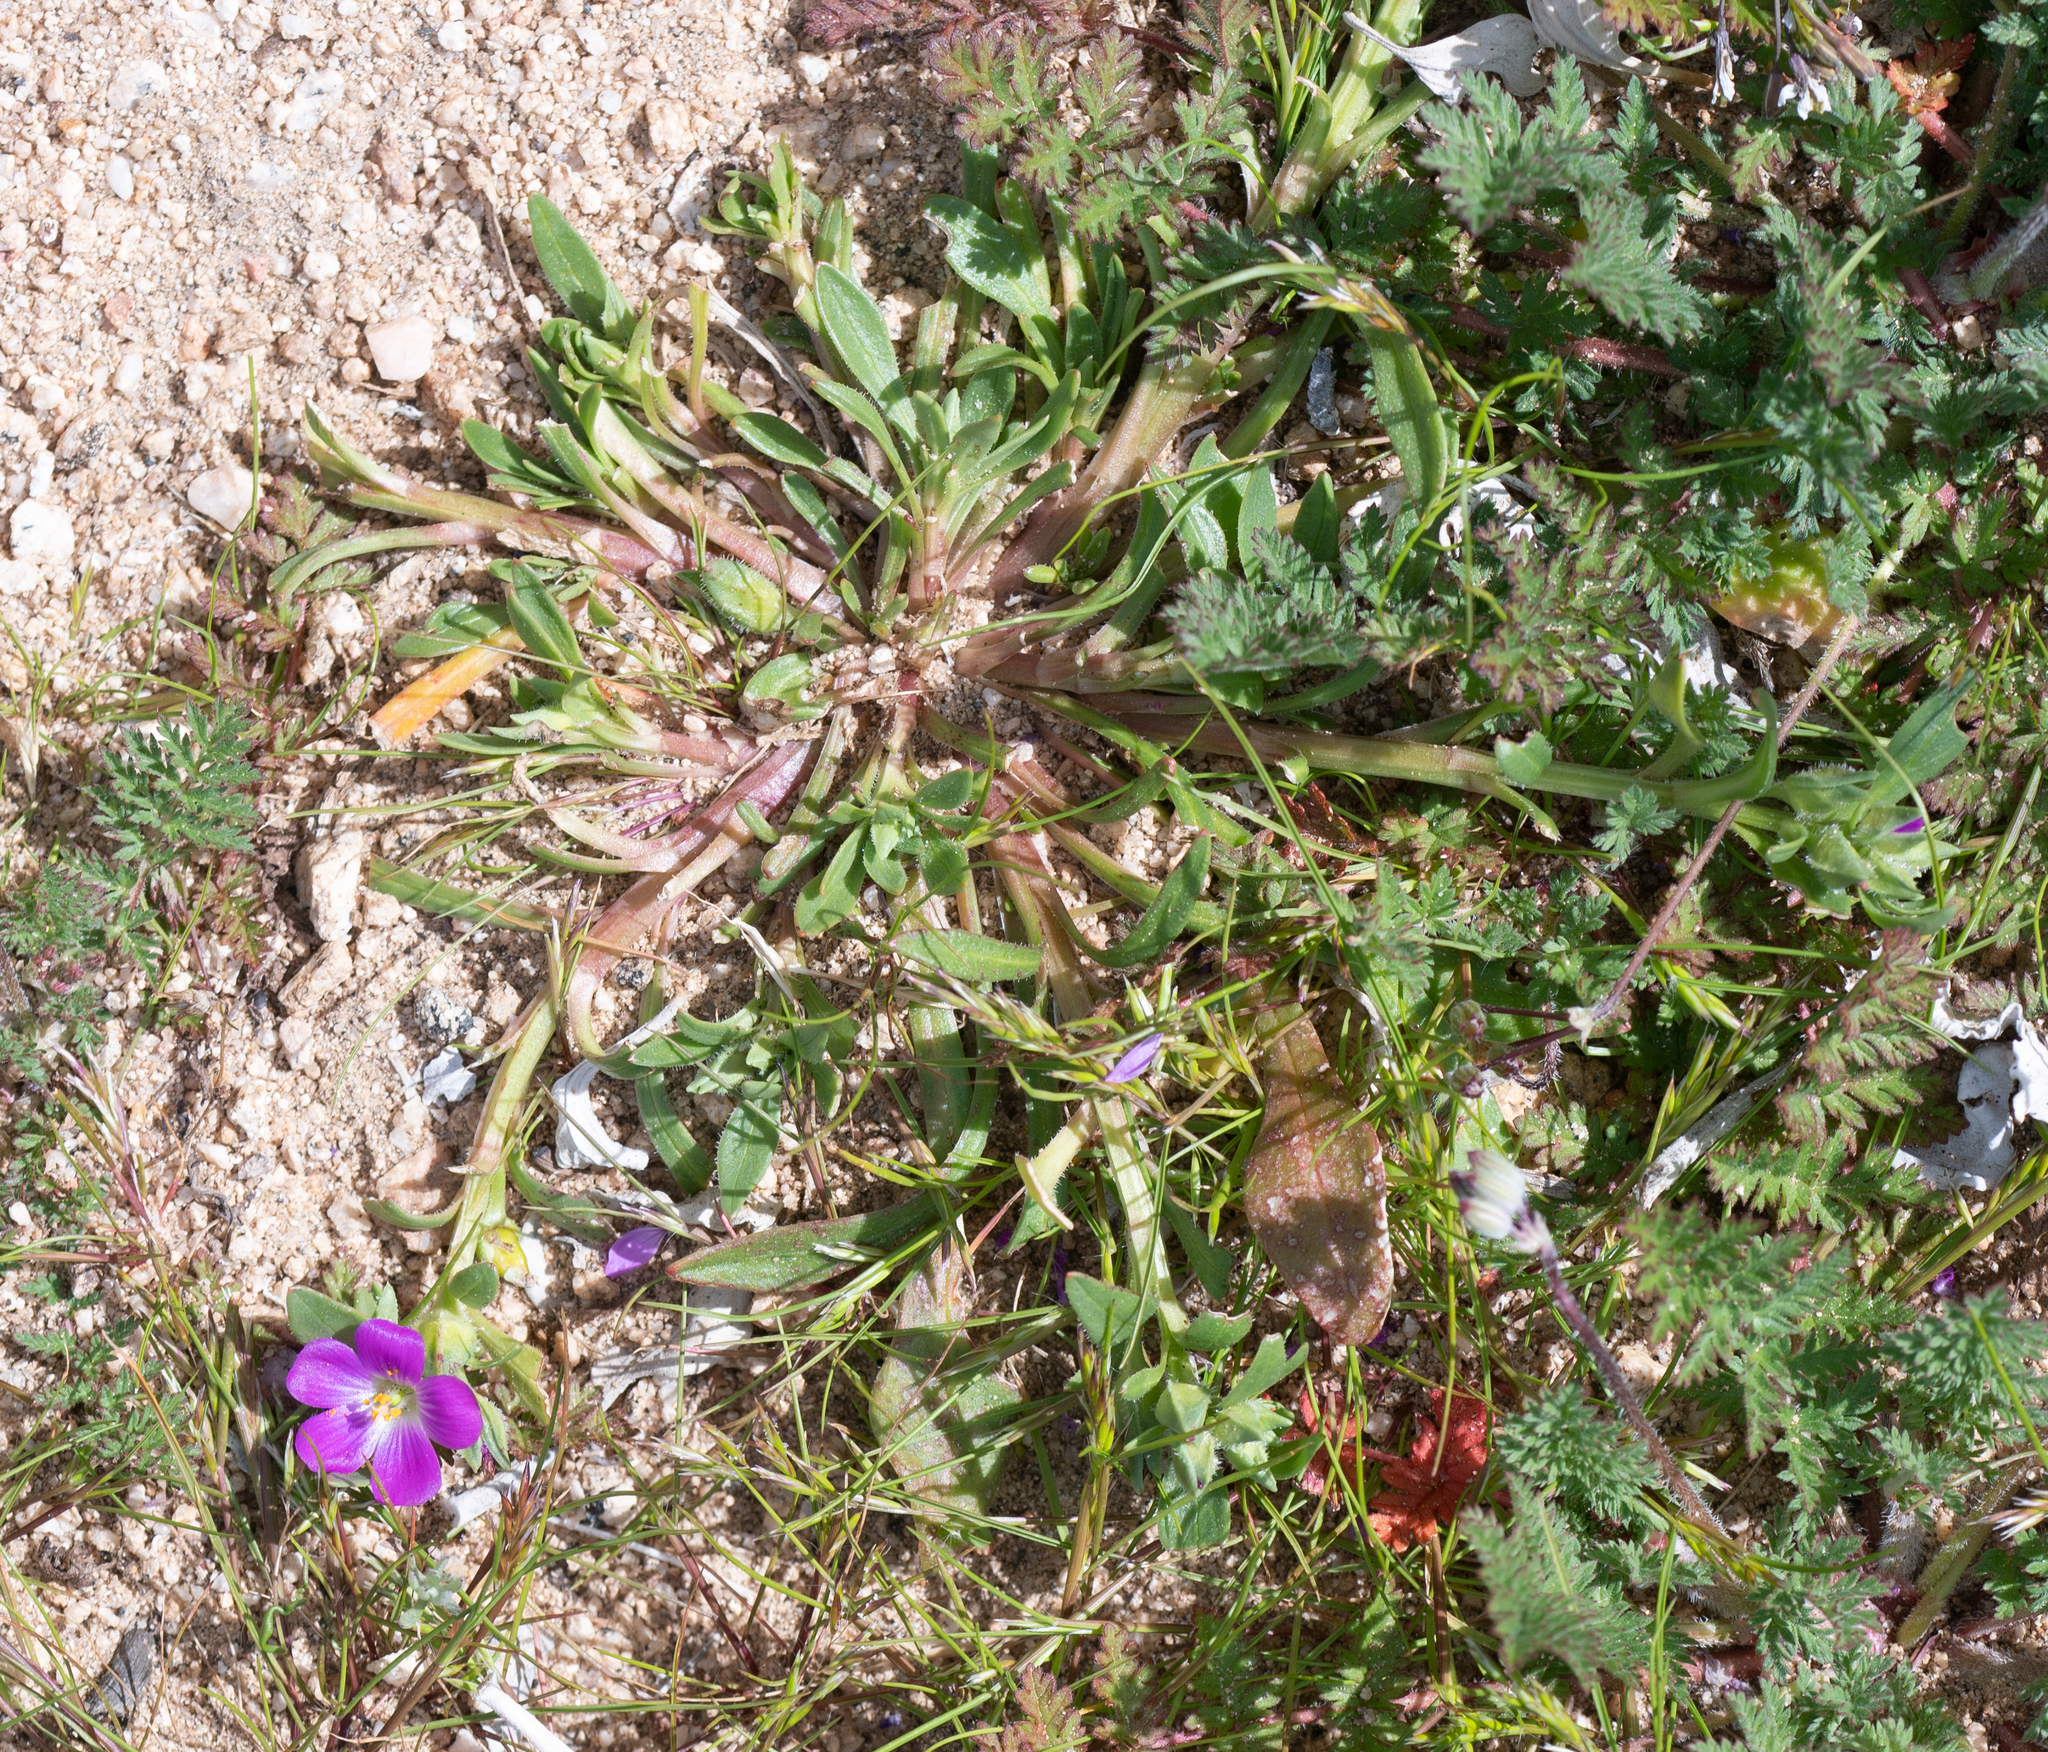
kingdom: Plantae
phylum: Tracheophyta
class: Magnoliopsida
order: Caryophyllales
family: Montiaceae
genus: Calandrinia
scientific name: Calandrinia menziesii
